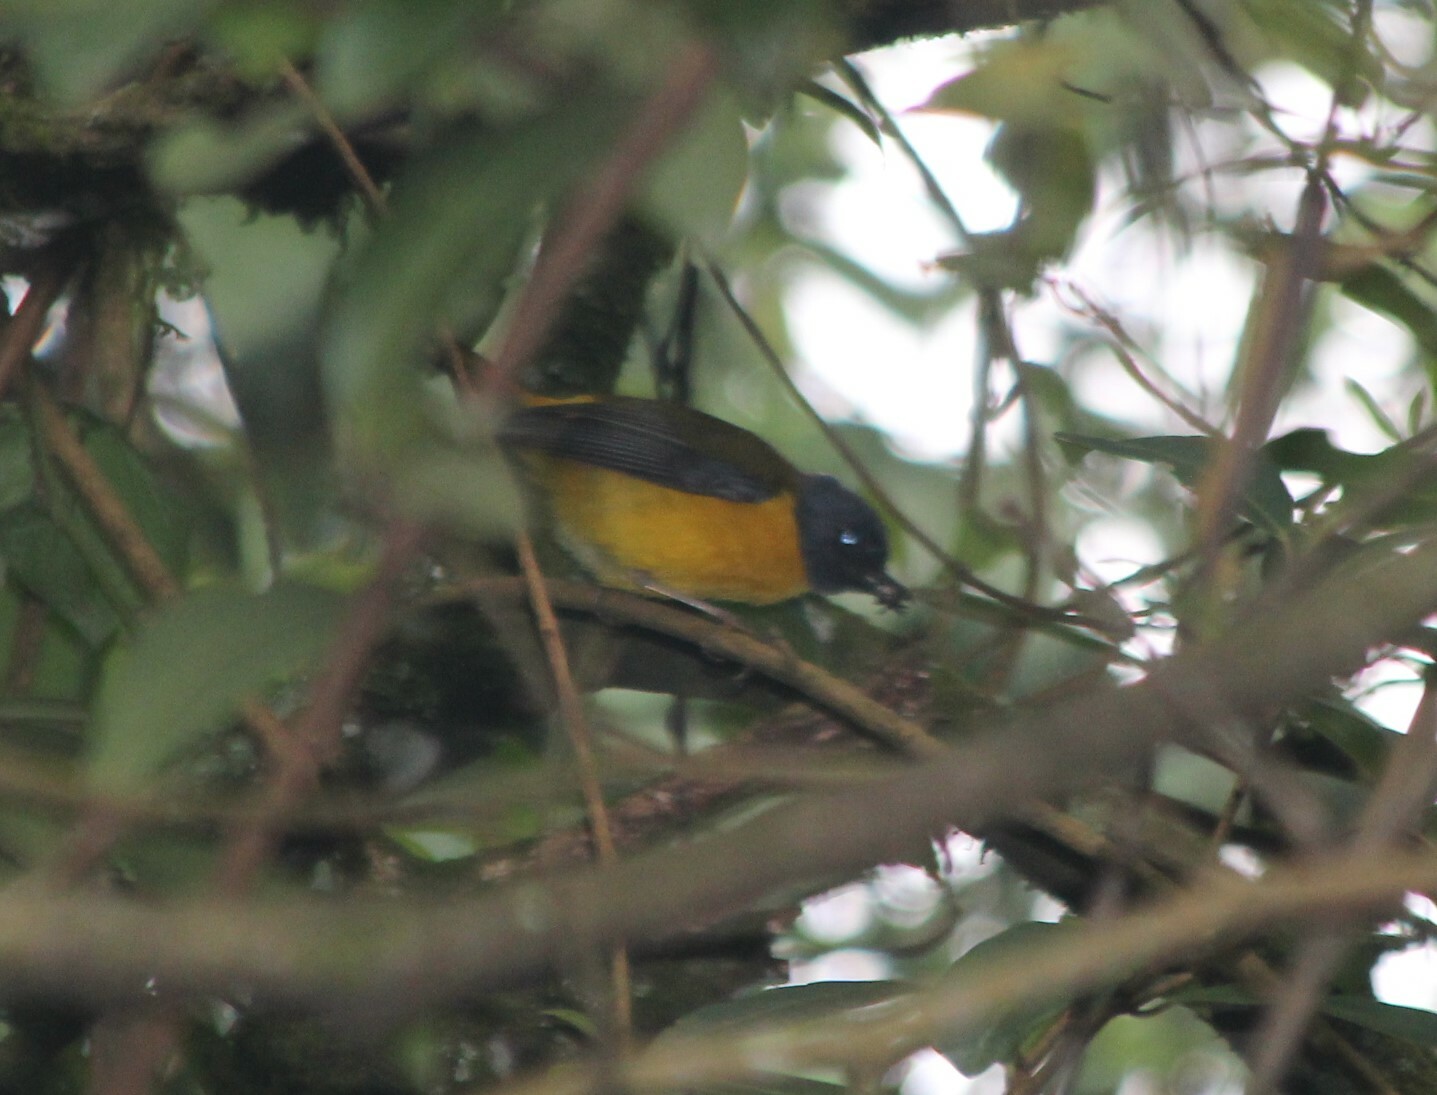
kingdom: Animalia
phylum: Chordata
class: Aves
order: Passeriformes
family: Muscicapidae
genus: Pogonocichla
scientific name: Pogonocichla stellata
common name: White-starred robin
